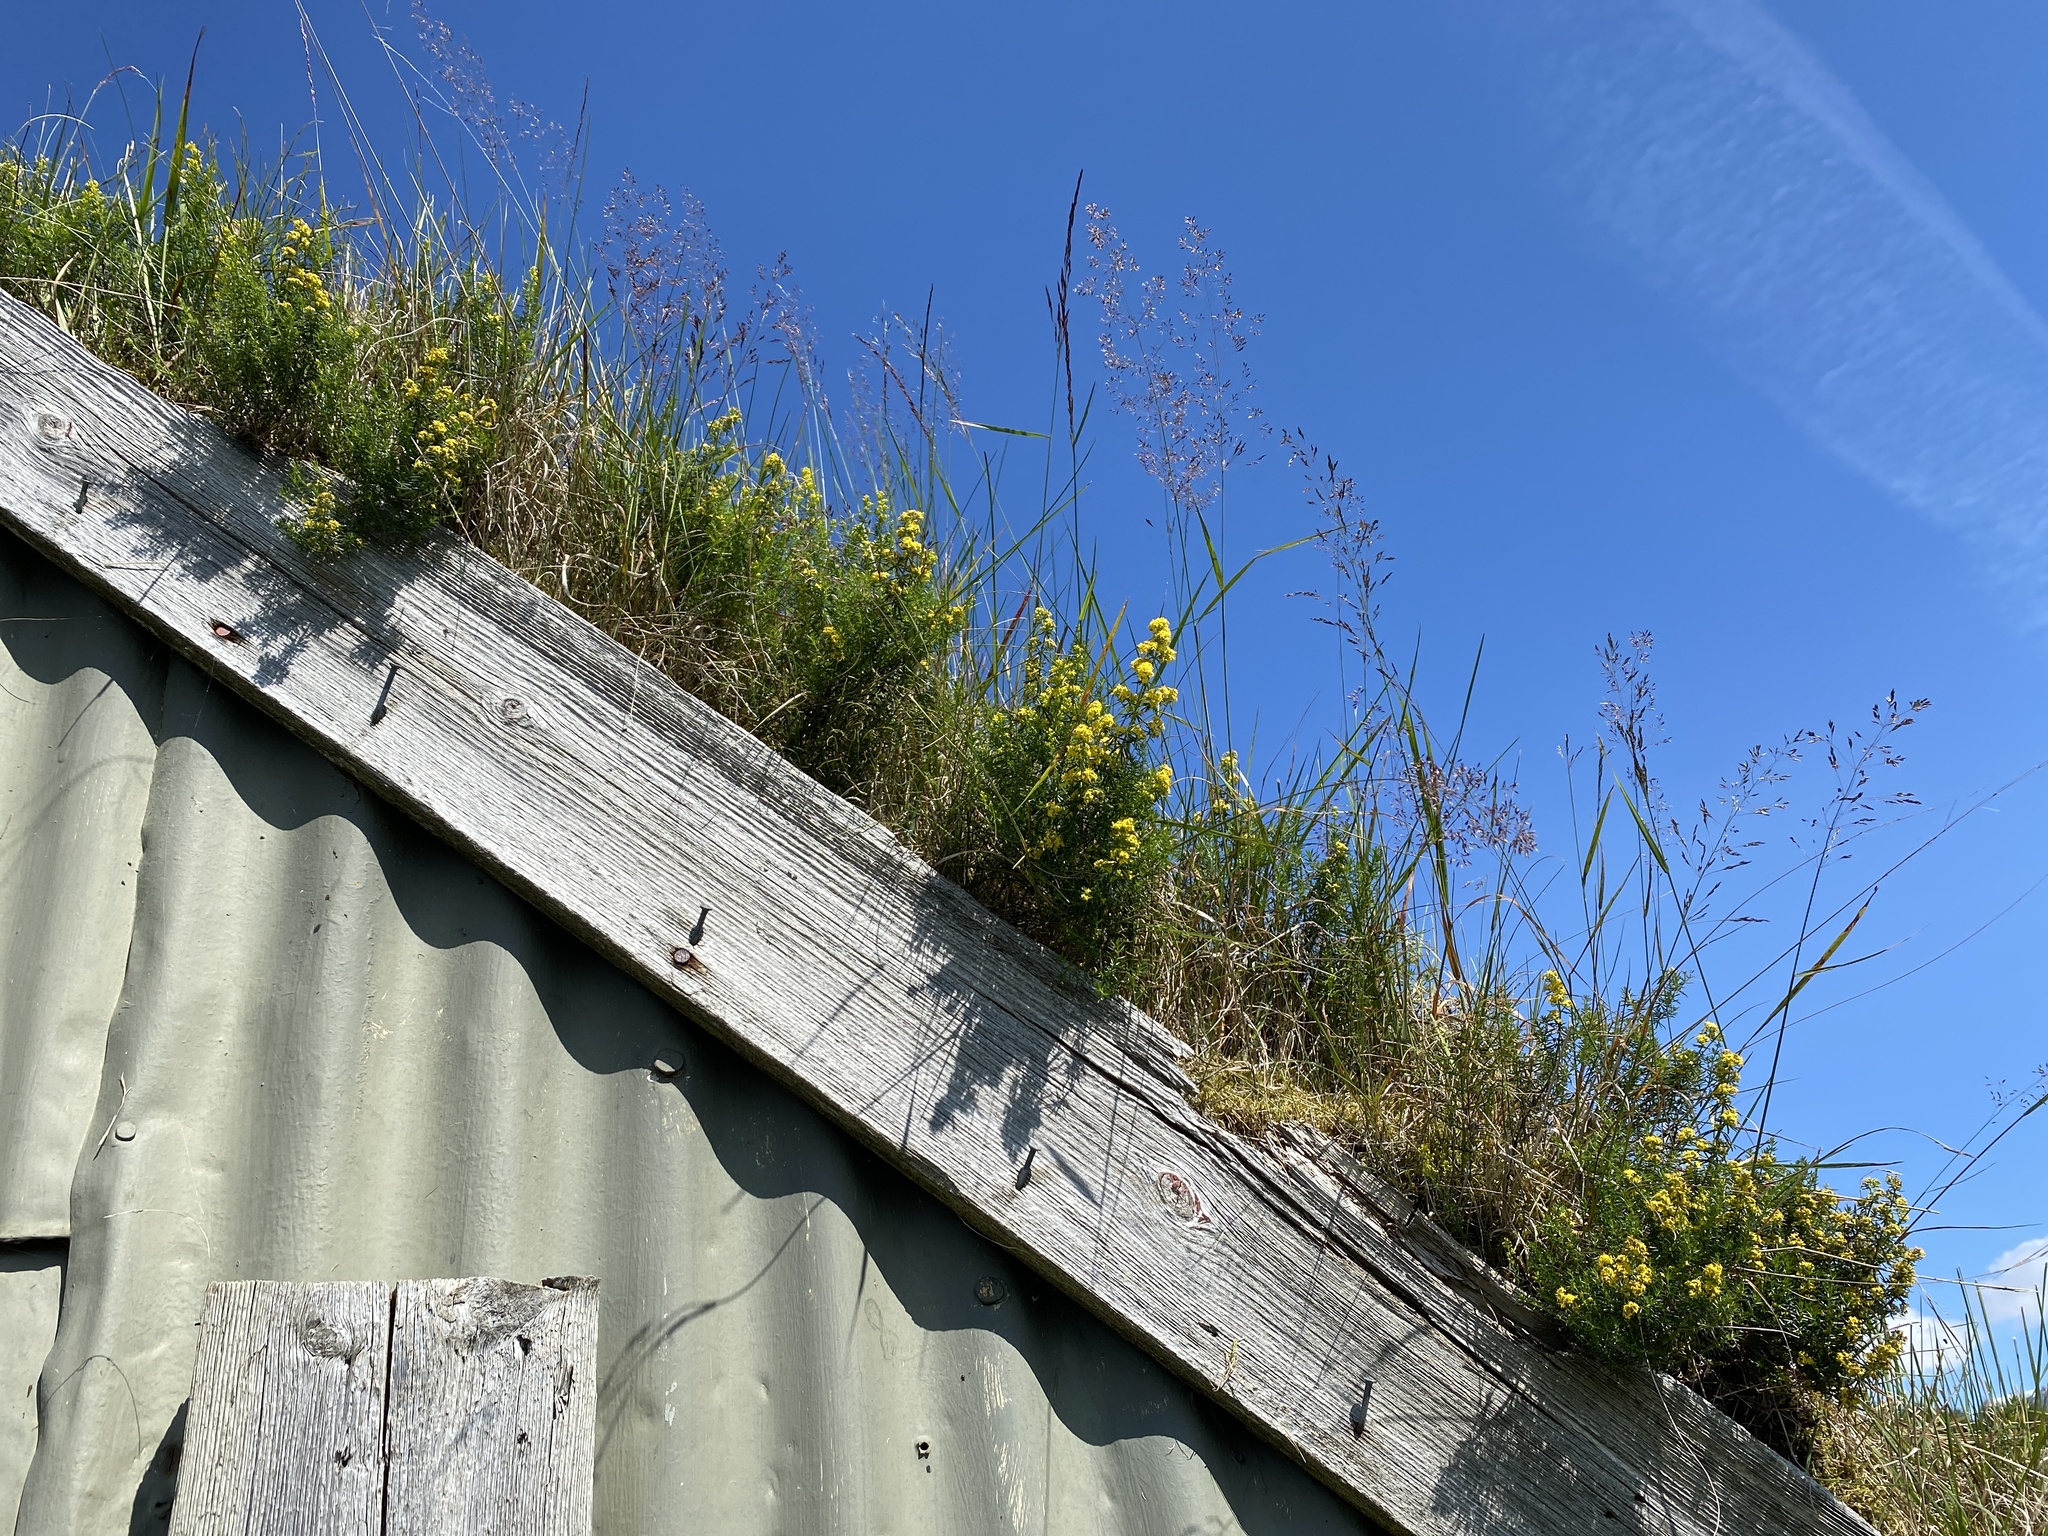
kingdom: Plantae
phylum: Tracheophyta
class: Magnoliopsida
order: Gentianales
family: Rubiaceae
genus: Galium
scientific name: Galium verum
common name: Lady's bedstraw
